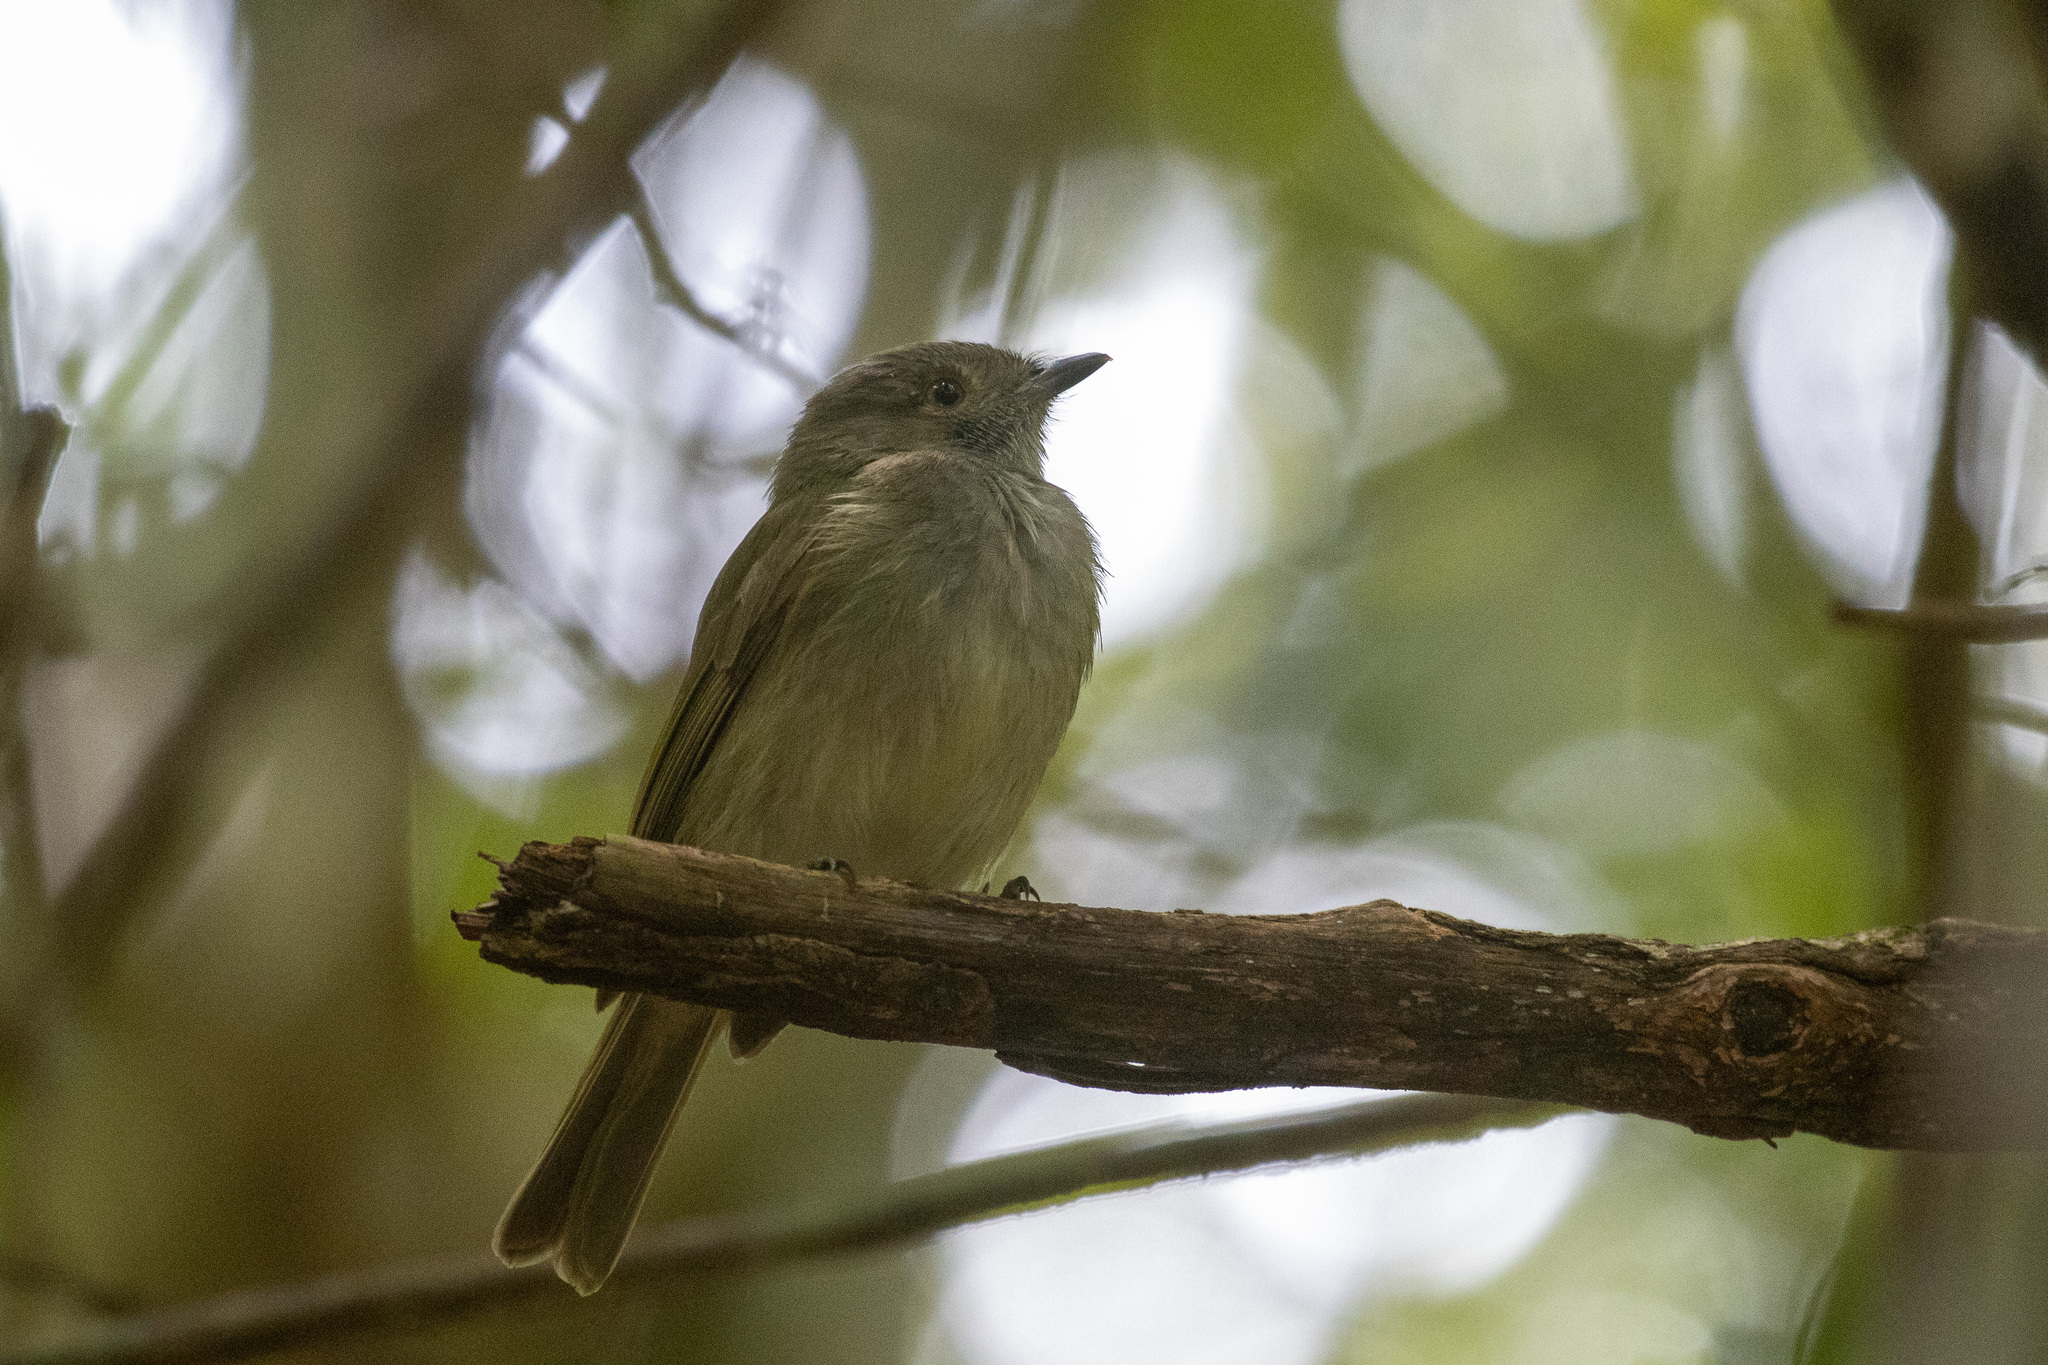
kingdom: Animalia
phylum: Chordata
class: Aves
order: Passeriformes
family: Pipridae
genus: Neopelma
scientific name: Neopelma pallescens
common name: Pale-bellied tyrant-manakin
